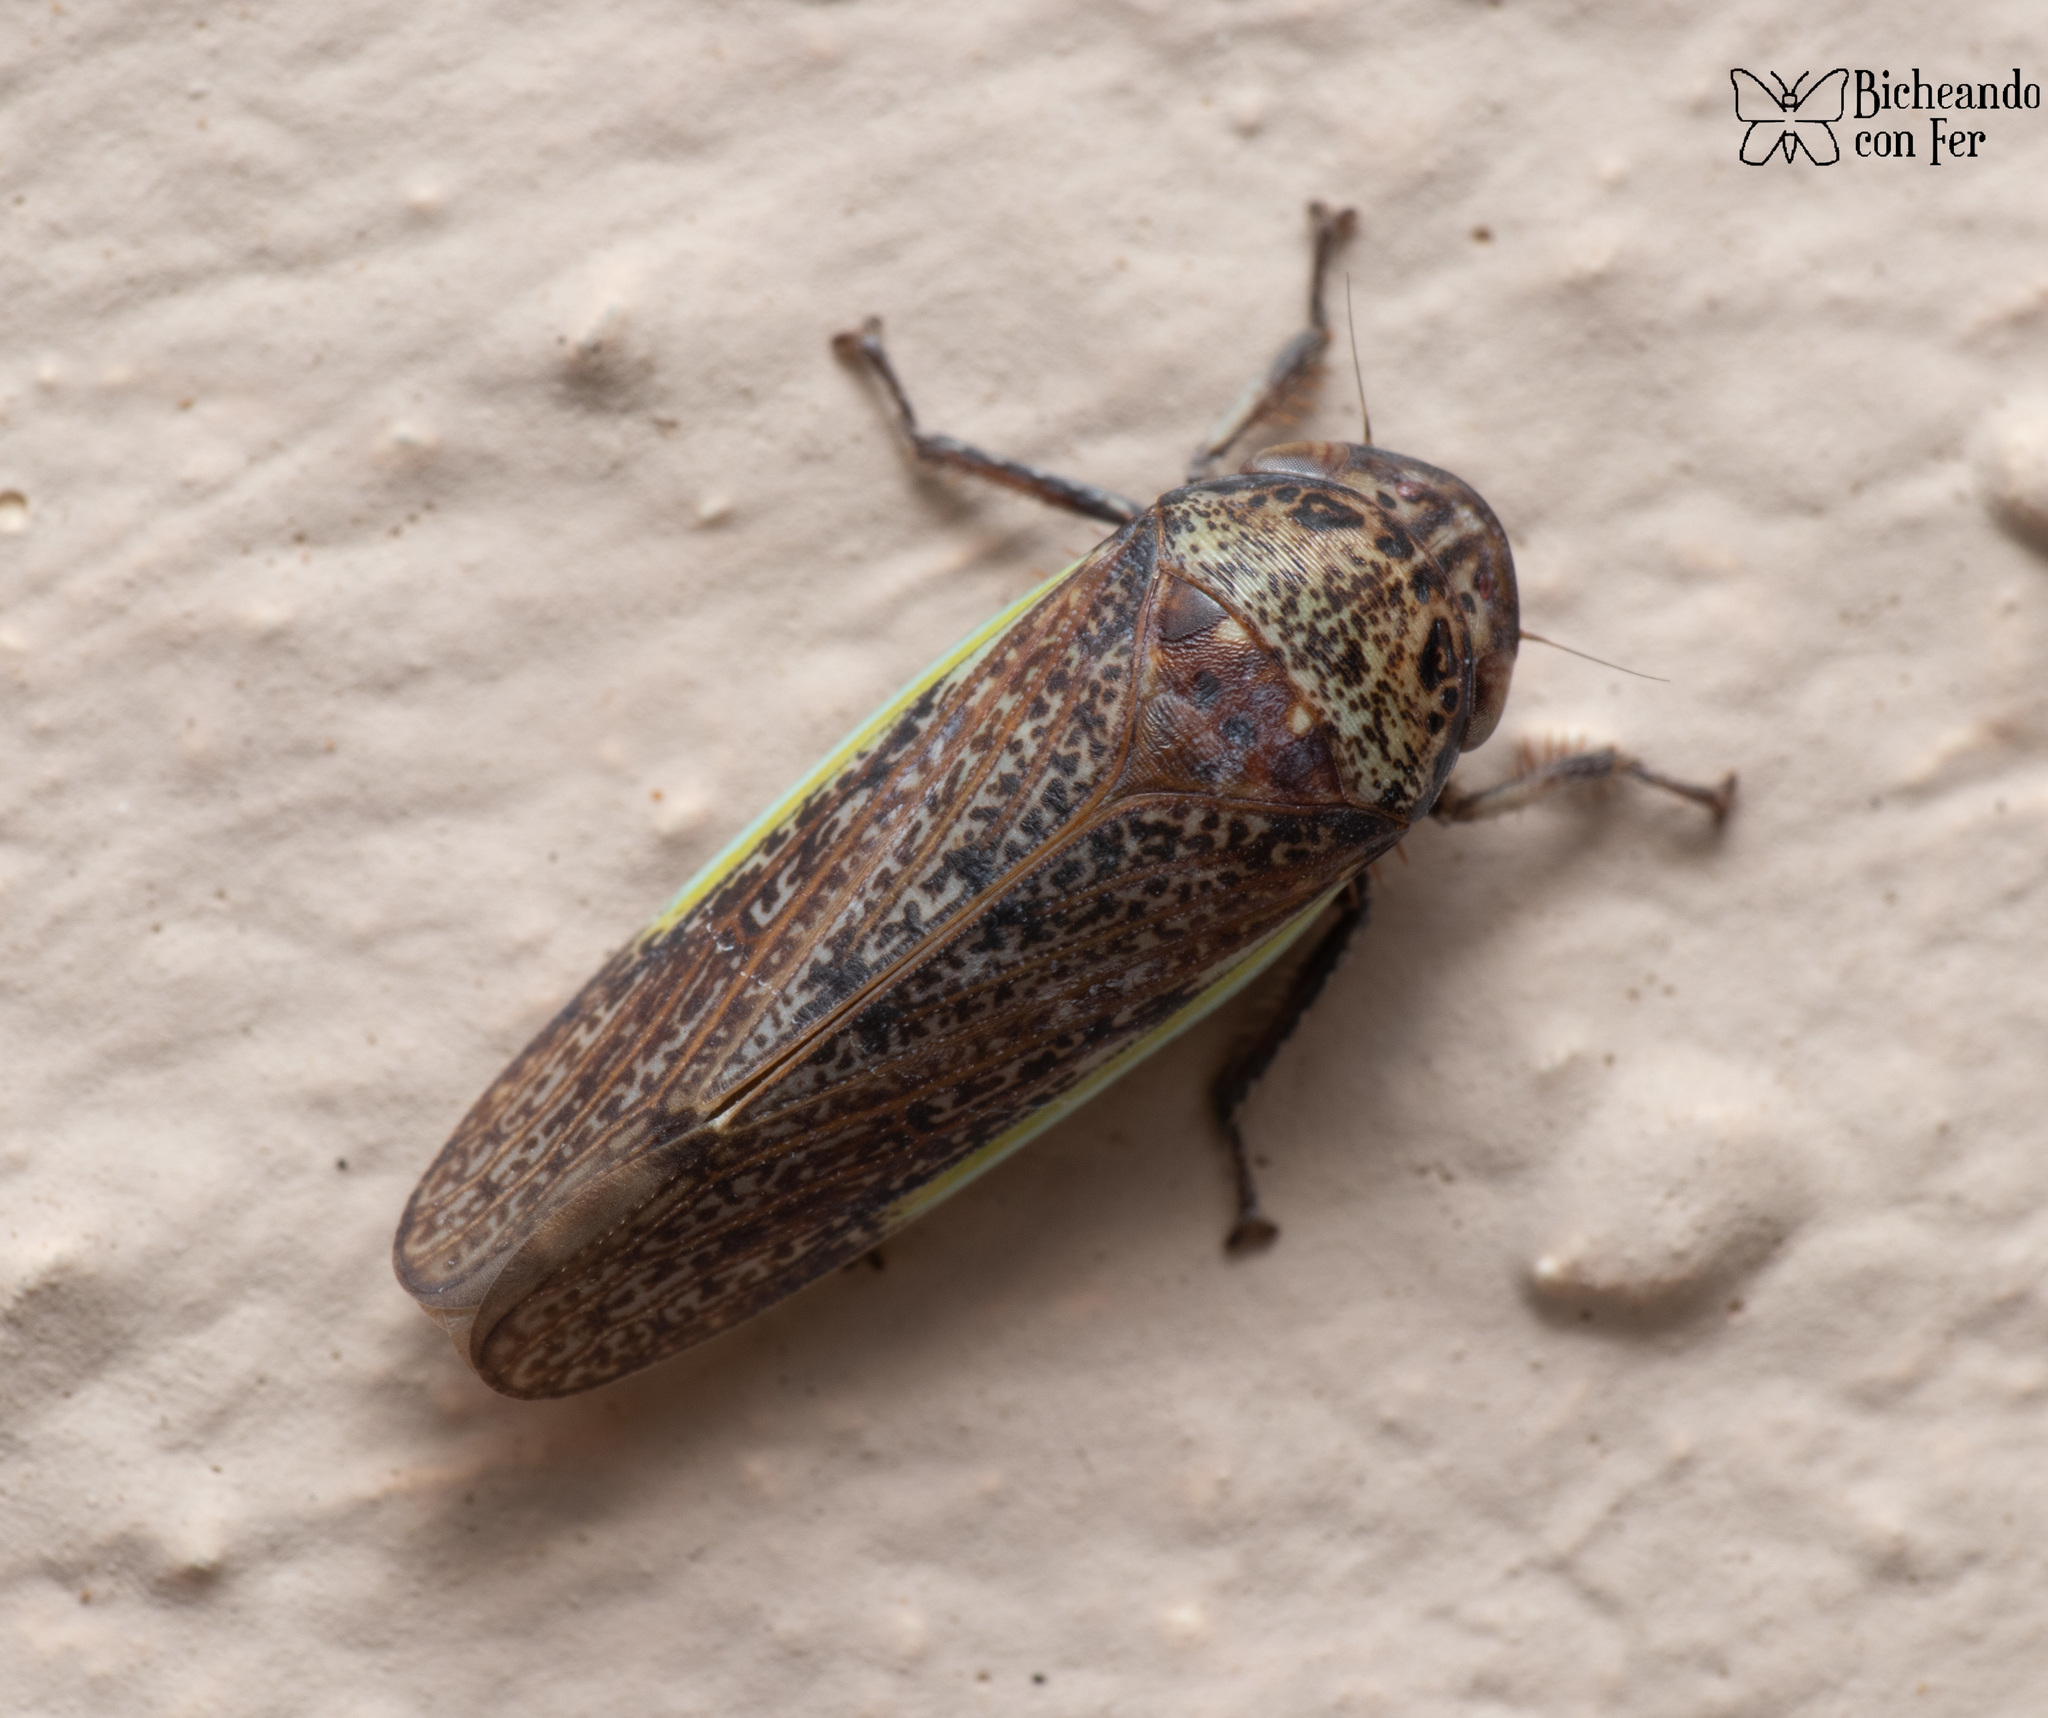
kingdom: Animalia
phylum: Arthropoda
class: Insecta
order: Hemiptera
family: Cicadellidae
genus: Hamana
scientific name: Hamana gelbata
